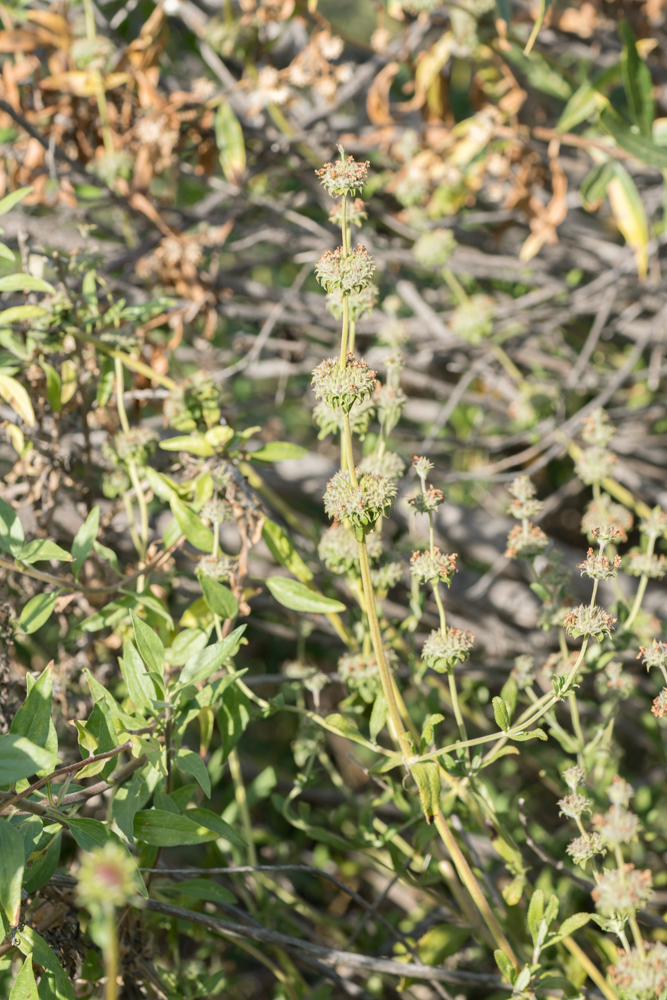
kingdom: Plantae
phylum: Tracheophyta
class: Magnoliopsida
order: Lamiales
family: Lamiaceae
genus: Salvia
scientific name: Salvia mellifera
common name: Black sage
